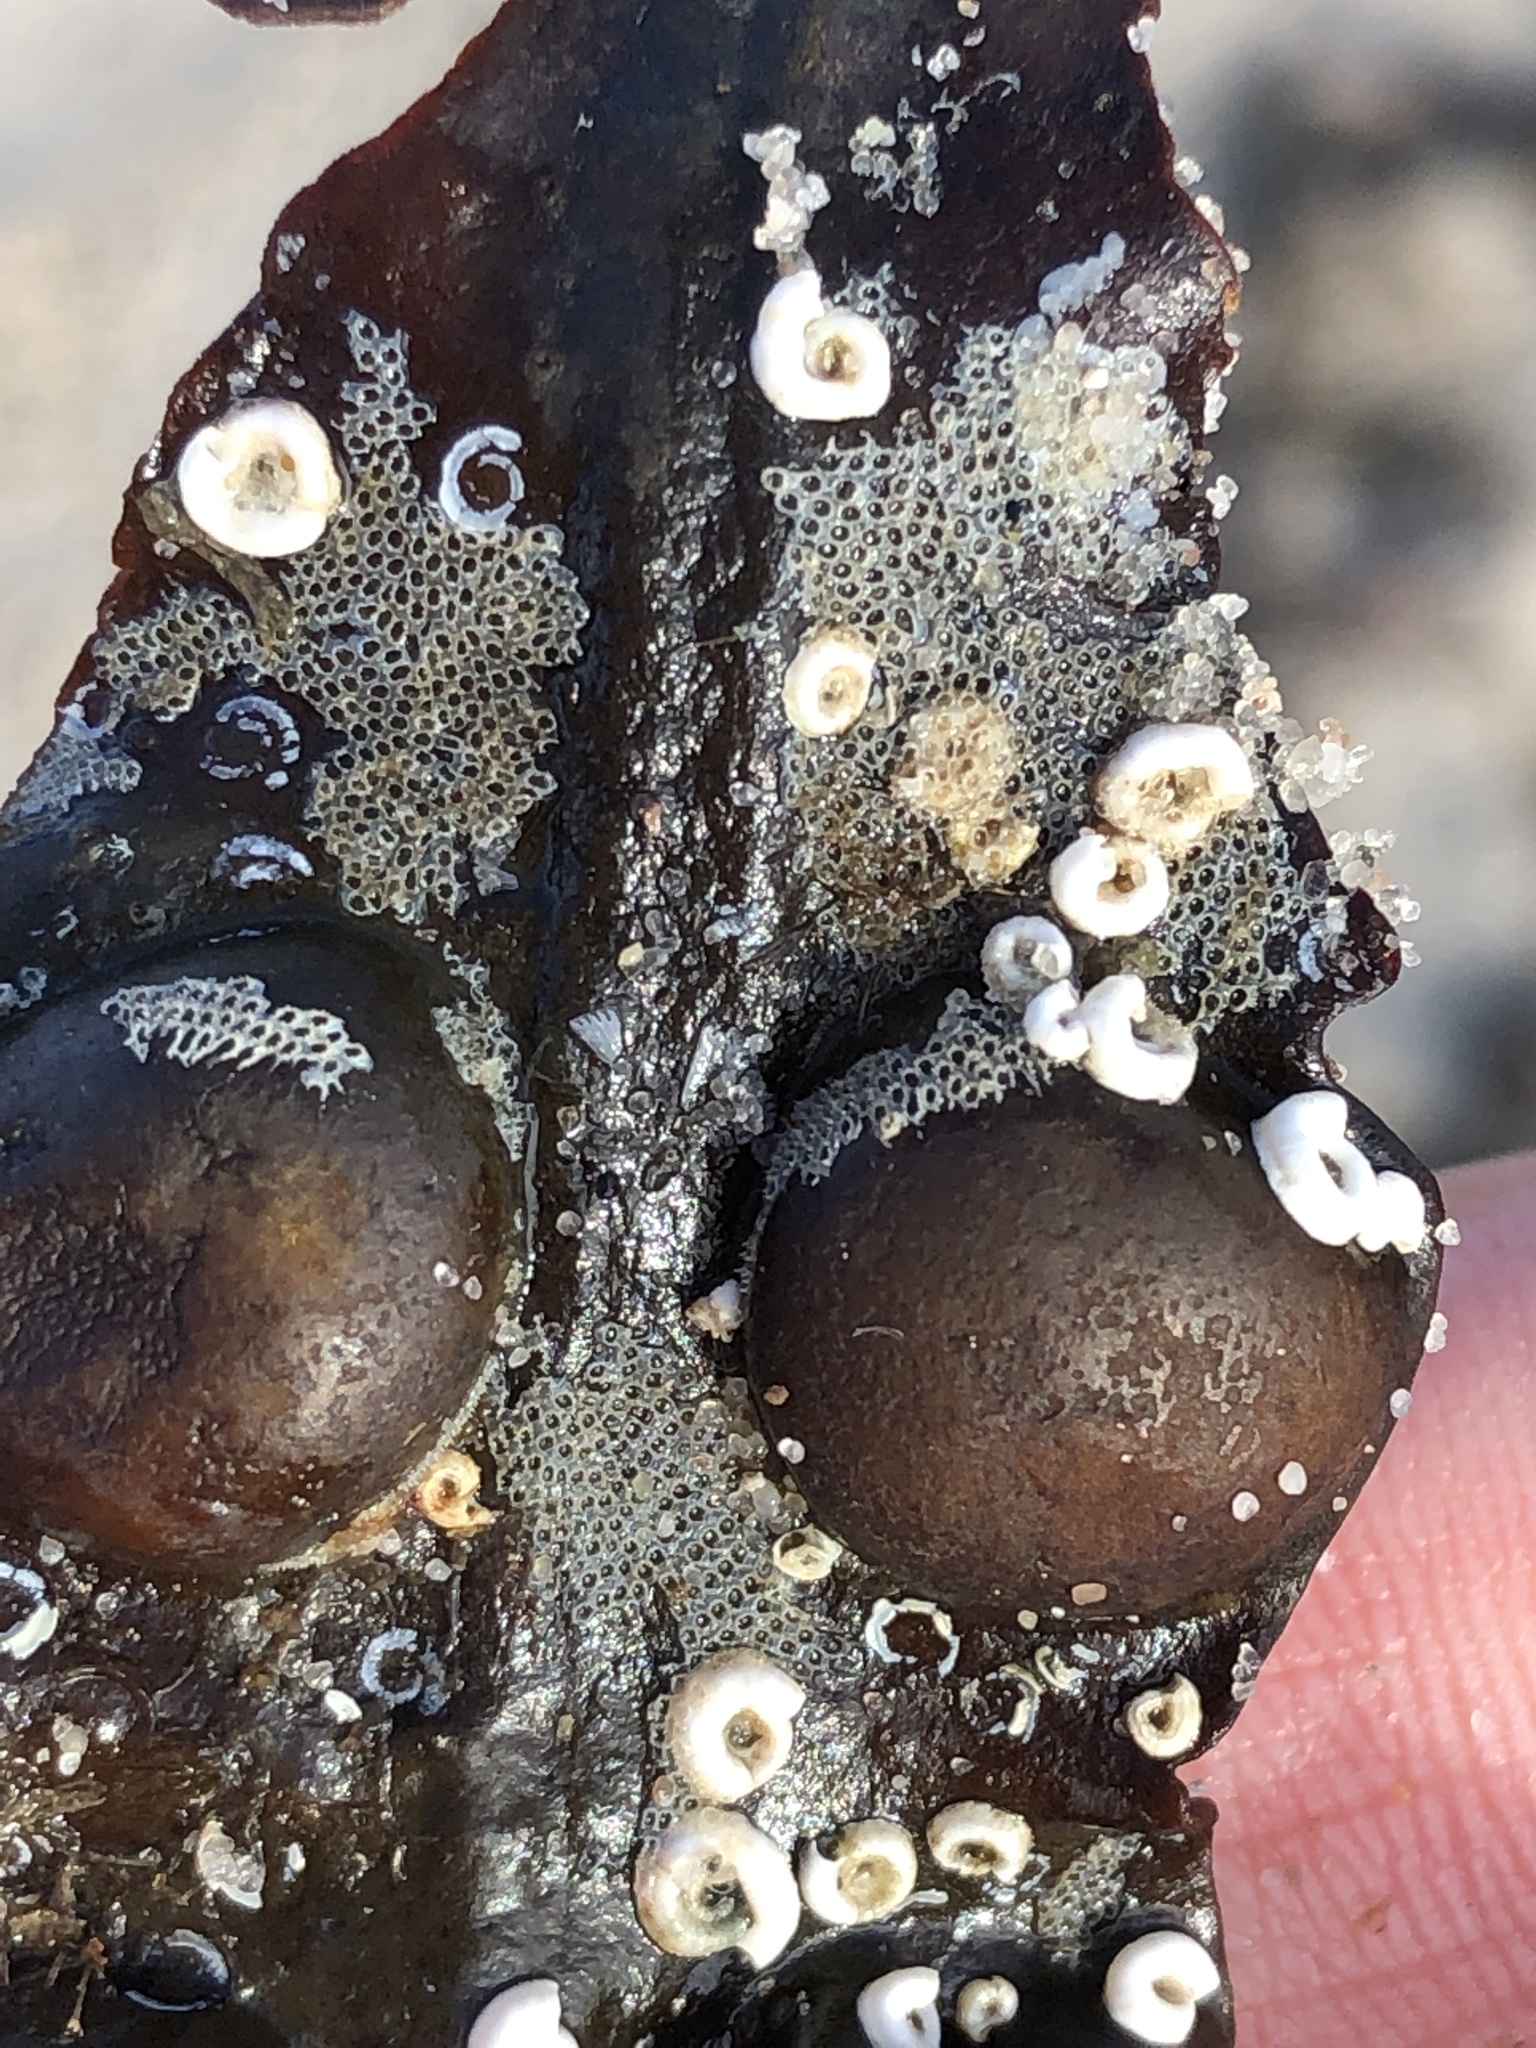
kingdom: Animalia
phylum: Annelida
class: Polychaeta
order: Sabellida
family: Serpulidae
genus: Spirorbis
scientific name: Spirorbis spirorbis
